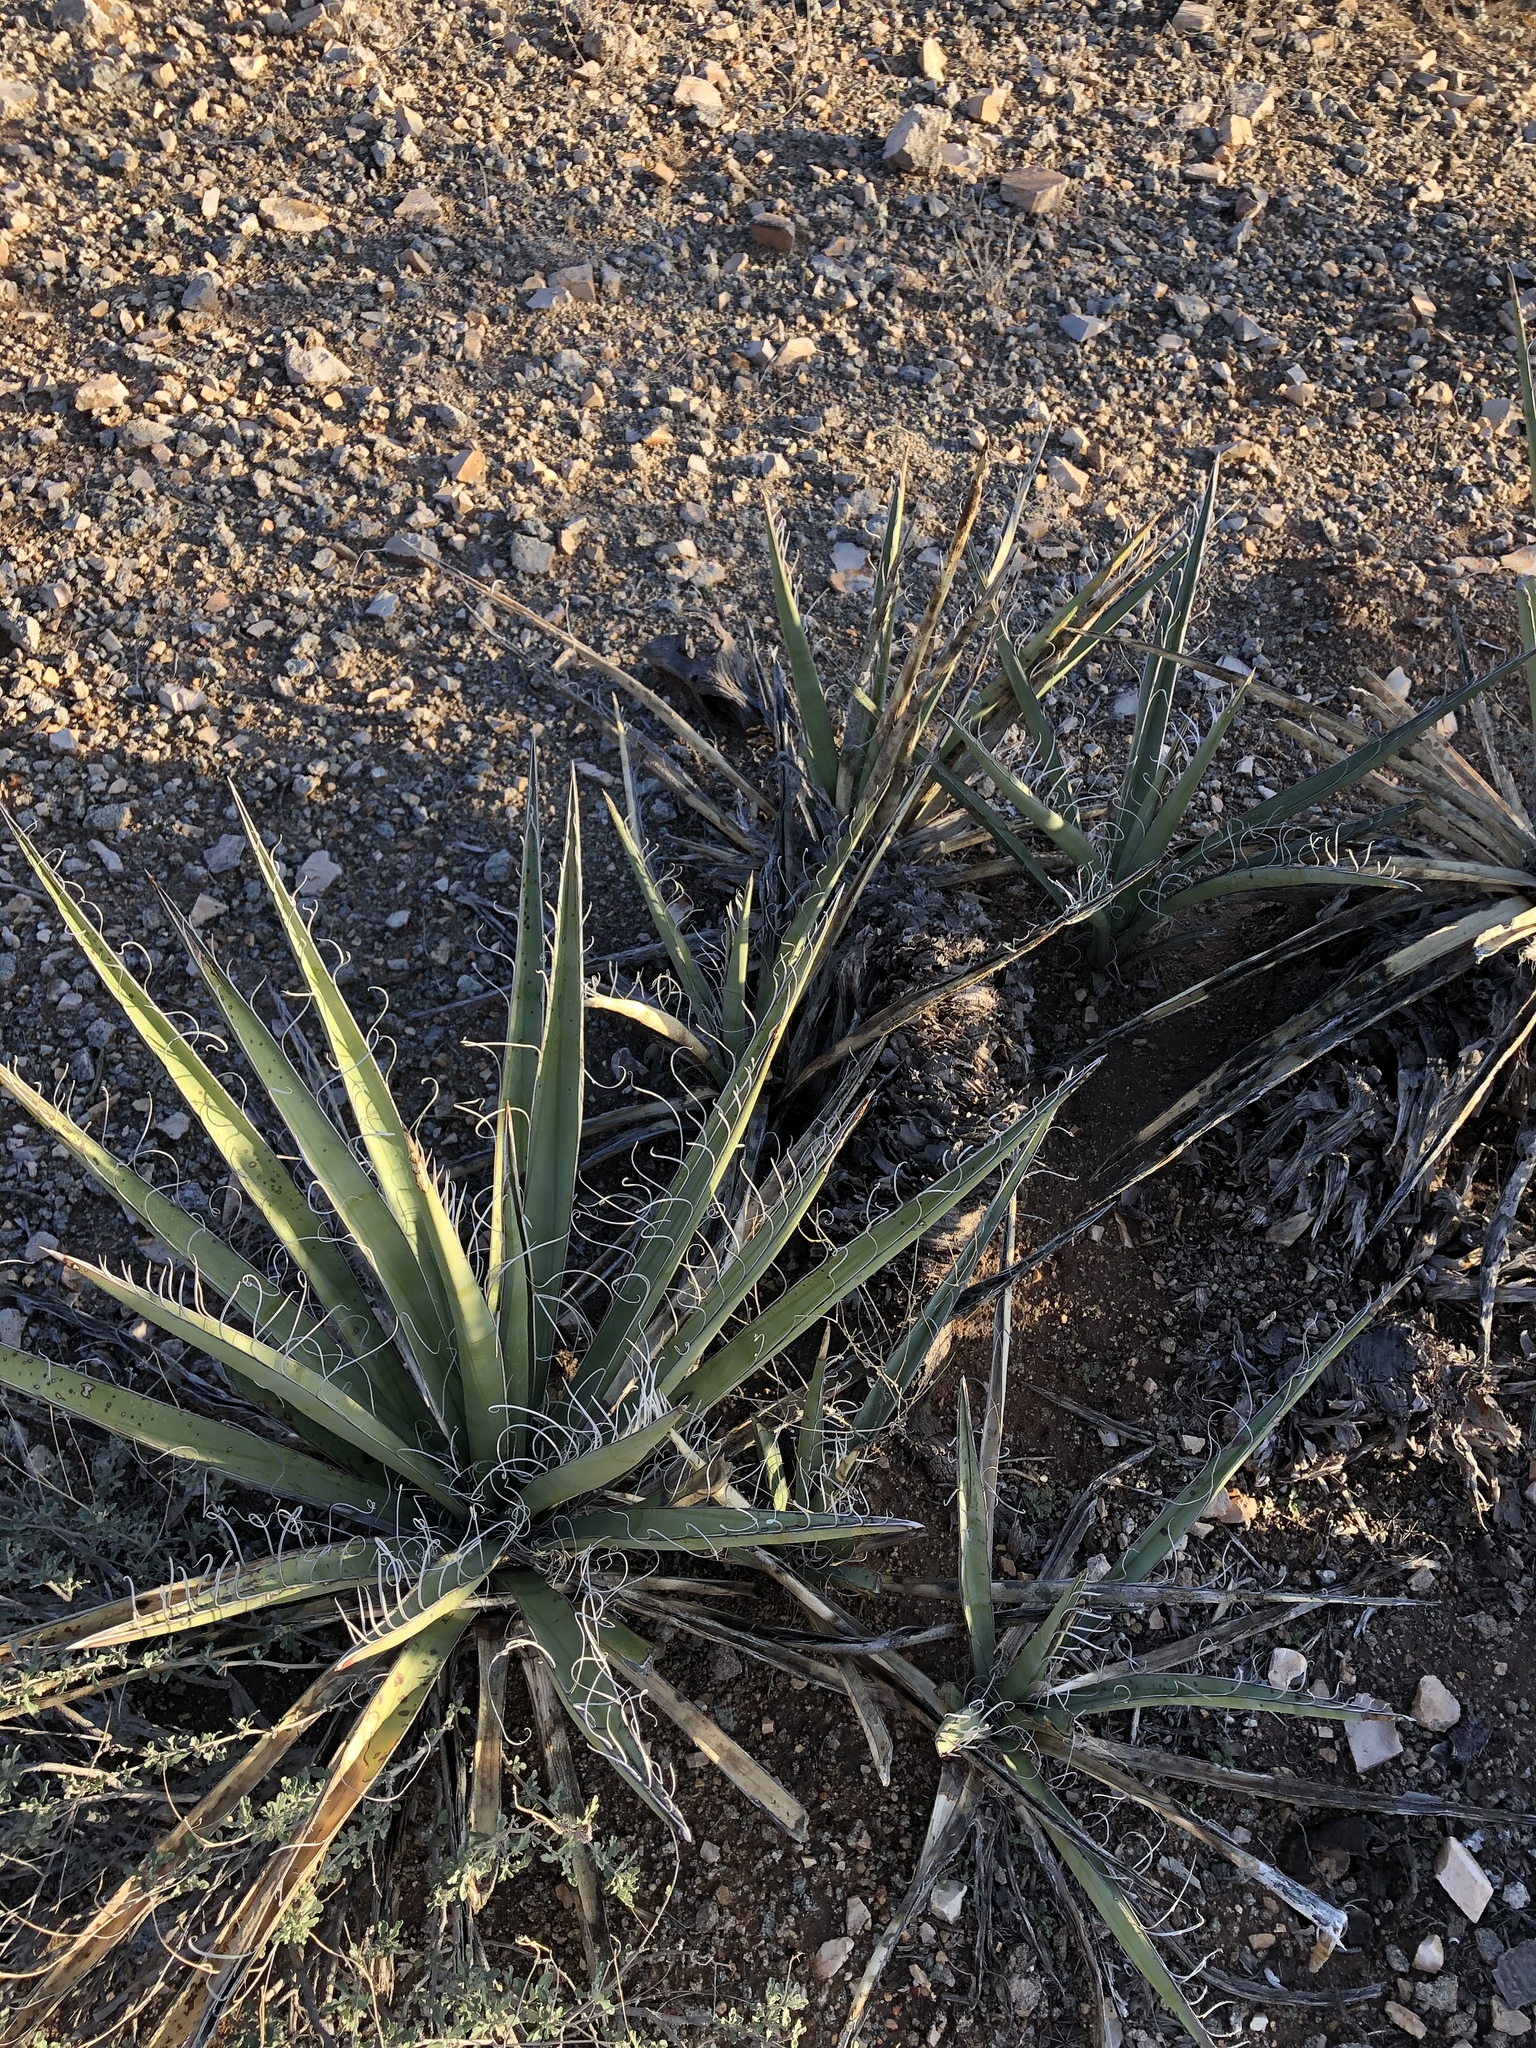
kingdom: Plantae
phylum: Tracheophyta
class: Liliopsida
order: Asparagales
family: Asparagaceae
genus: Yucca
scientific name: Yucca baccata
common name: Banana yucca
